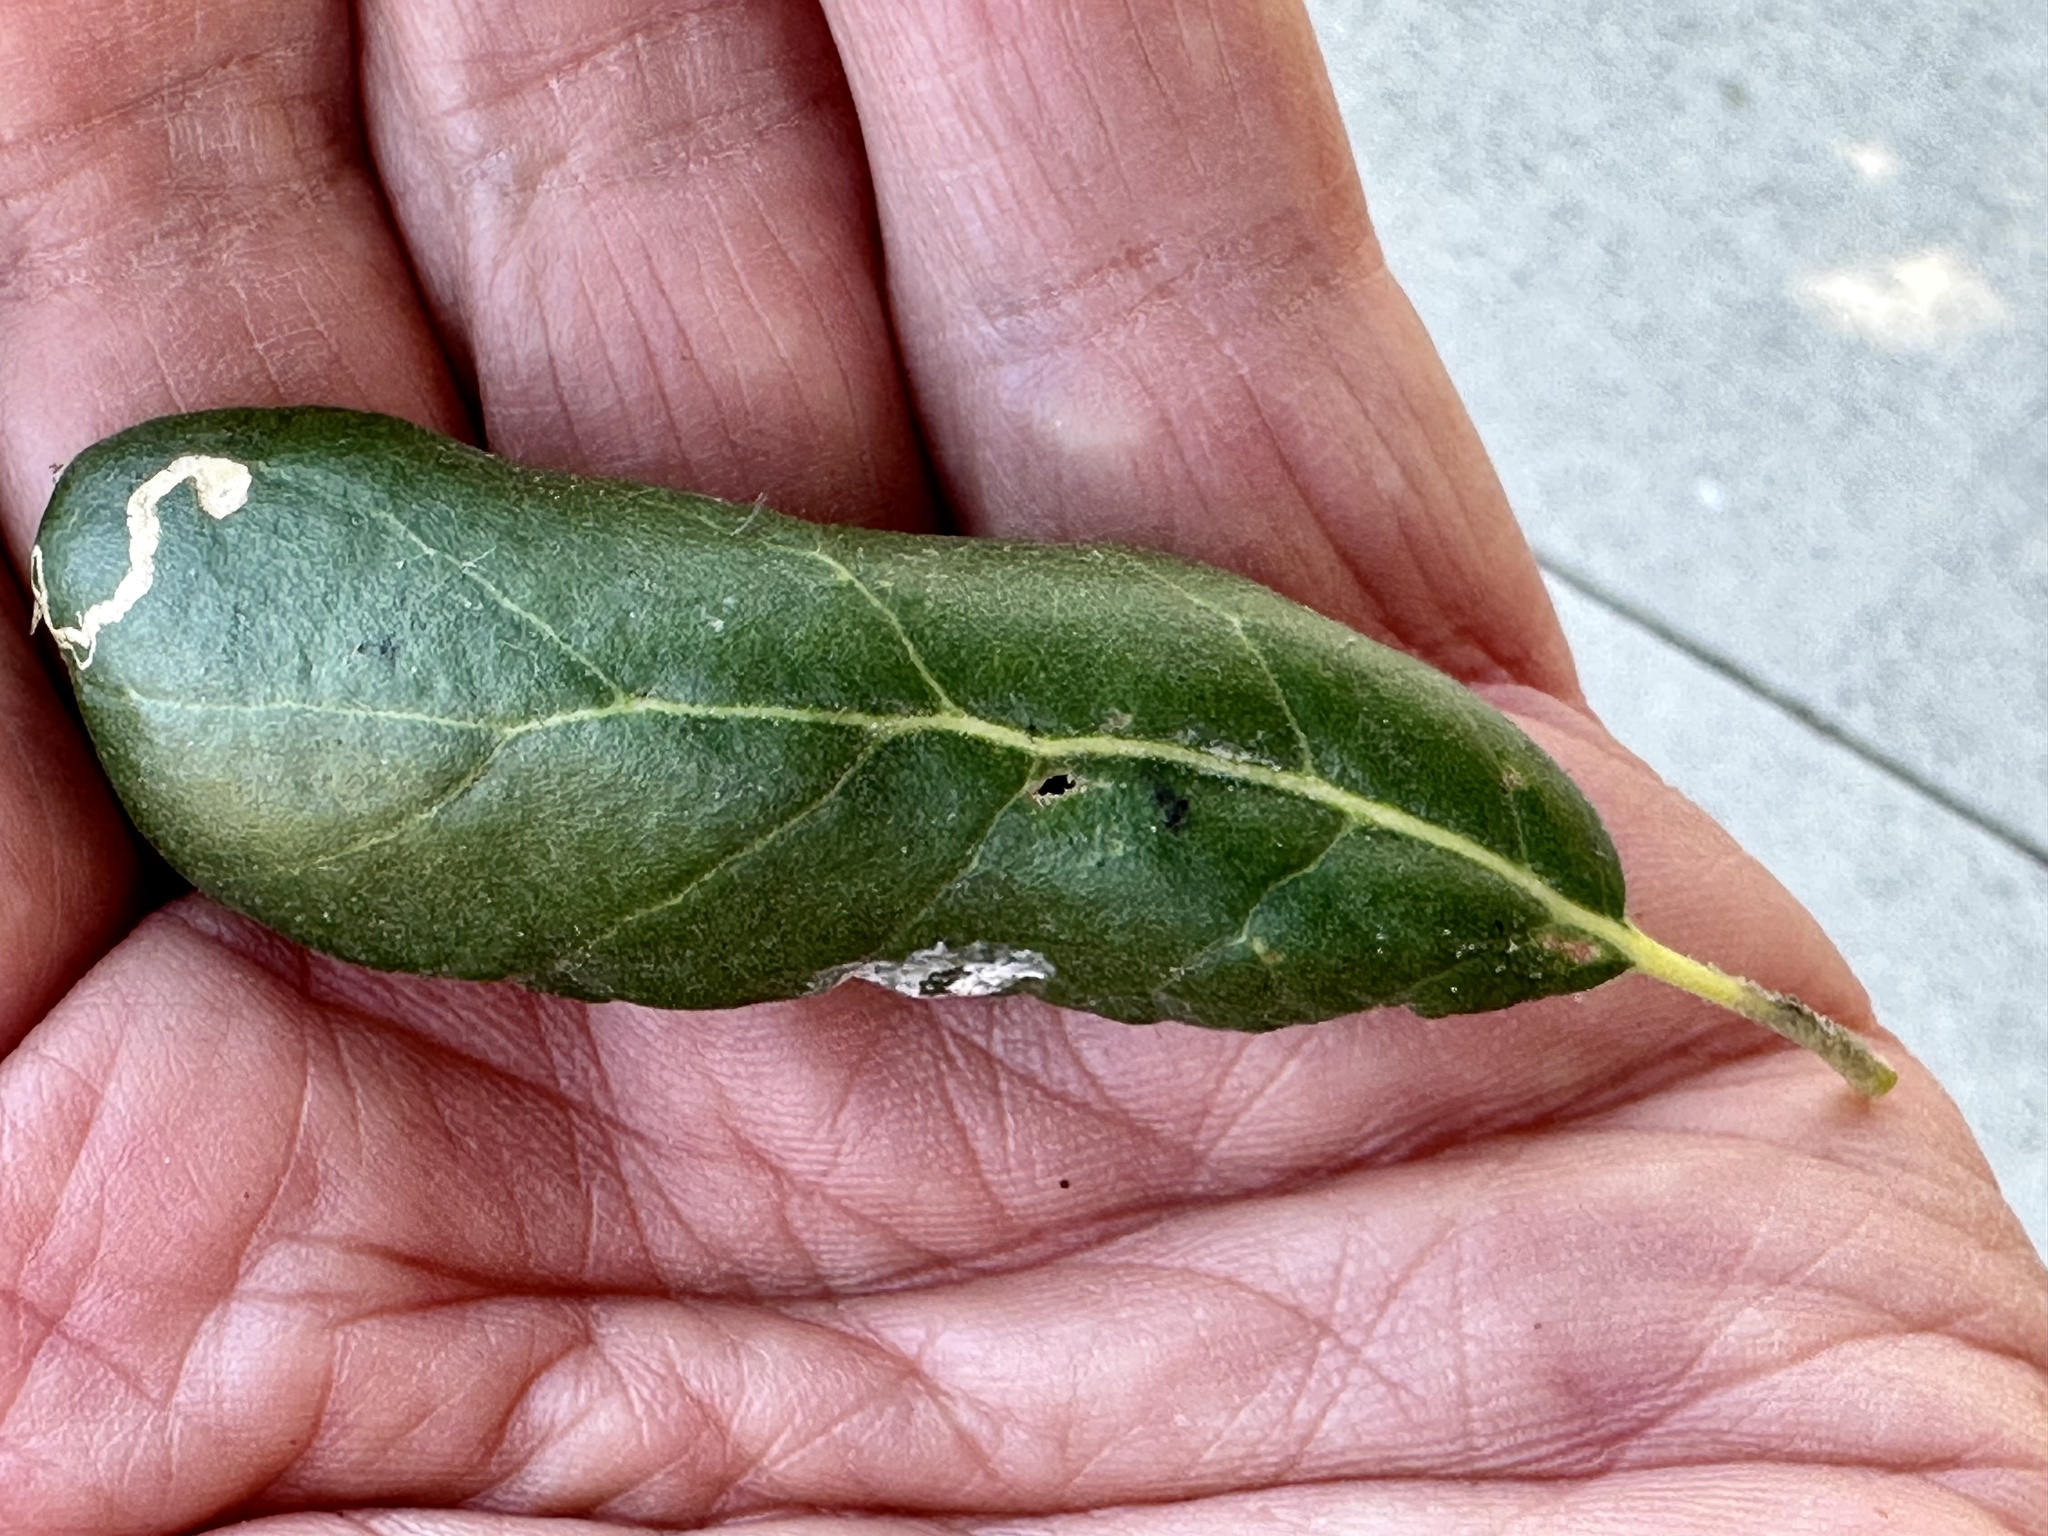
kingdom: Plantae
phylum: Tracheophyta
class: Magnoliopsida
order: Fagales
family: Fagaceae
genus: Quercus
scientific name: Quercus agrifolia
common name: California live oak
